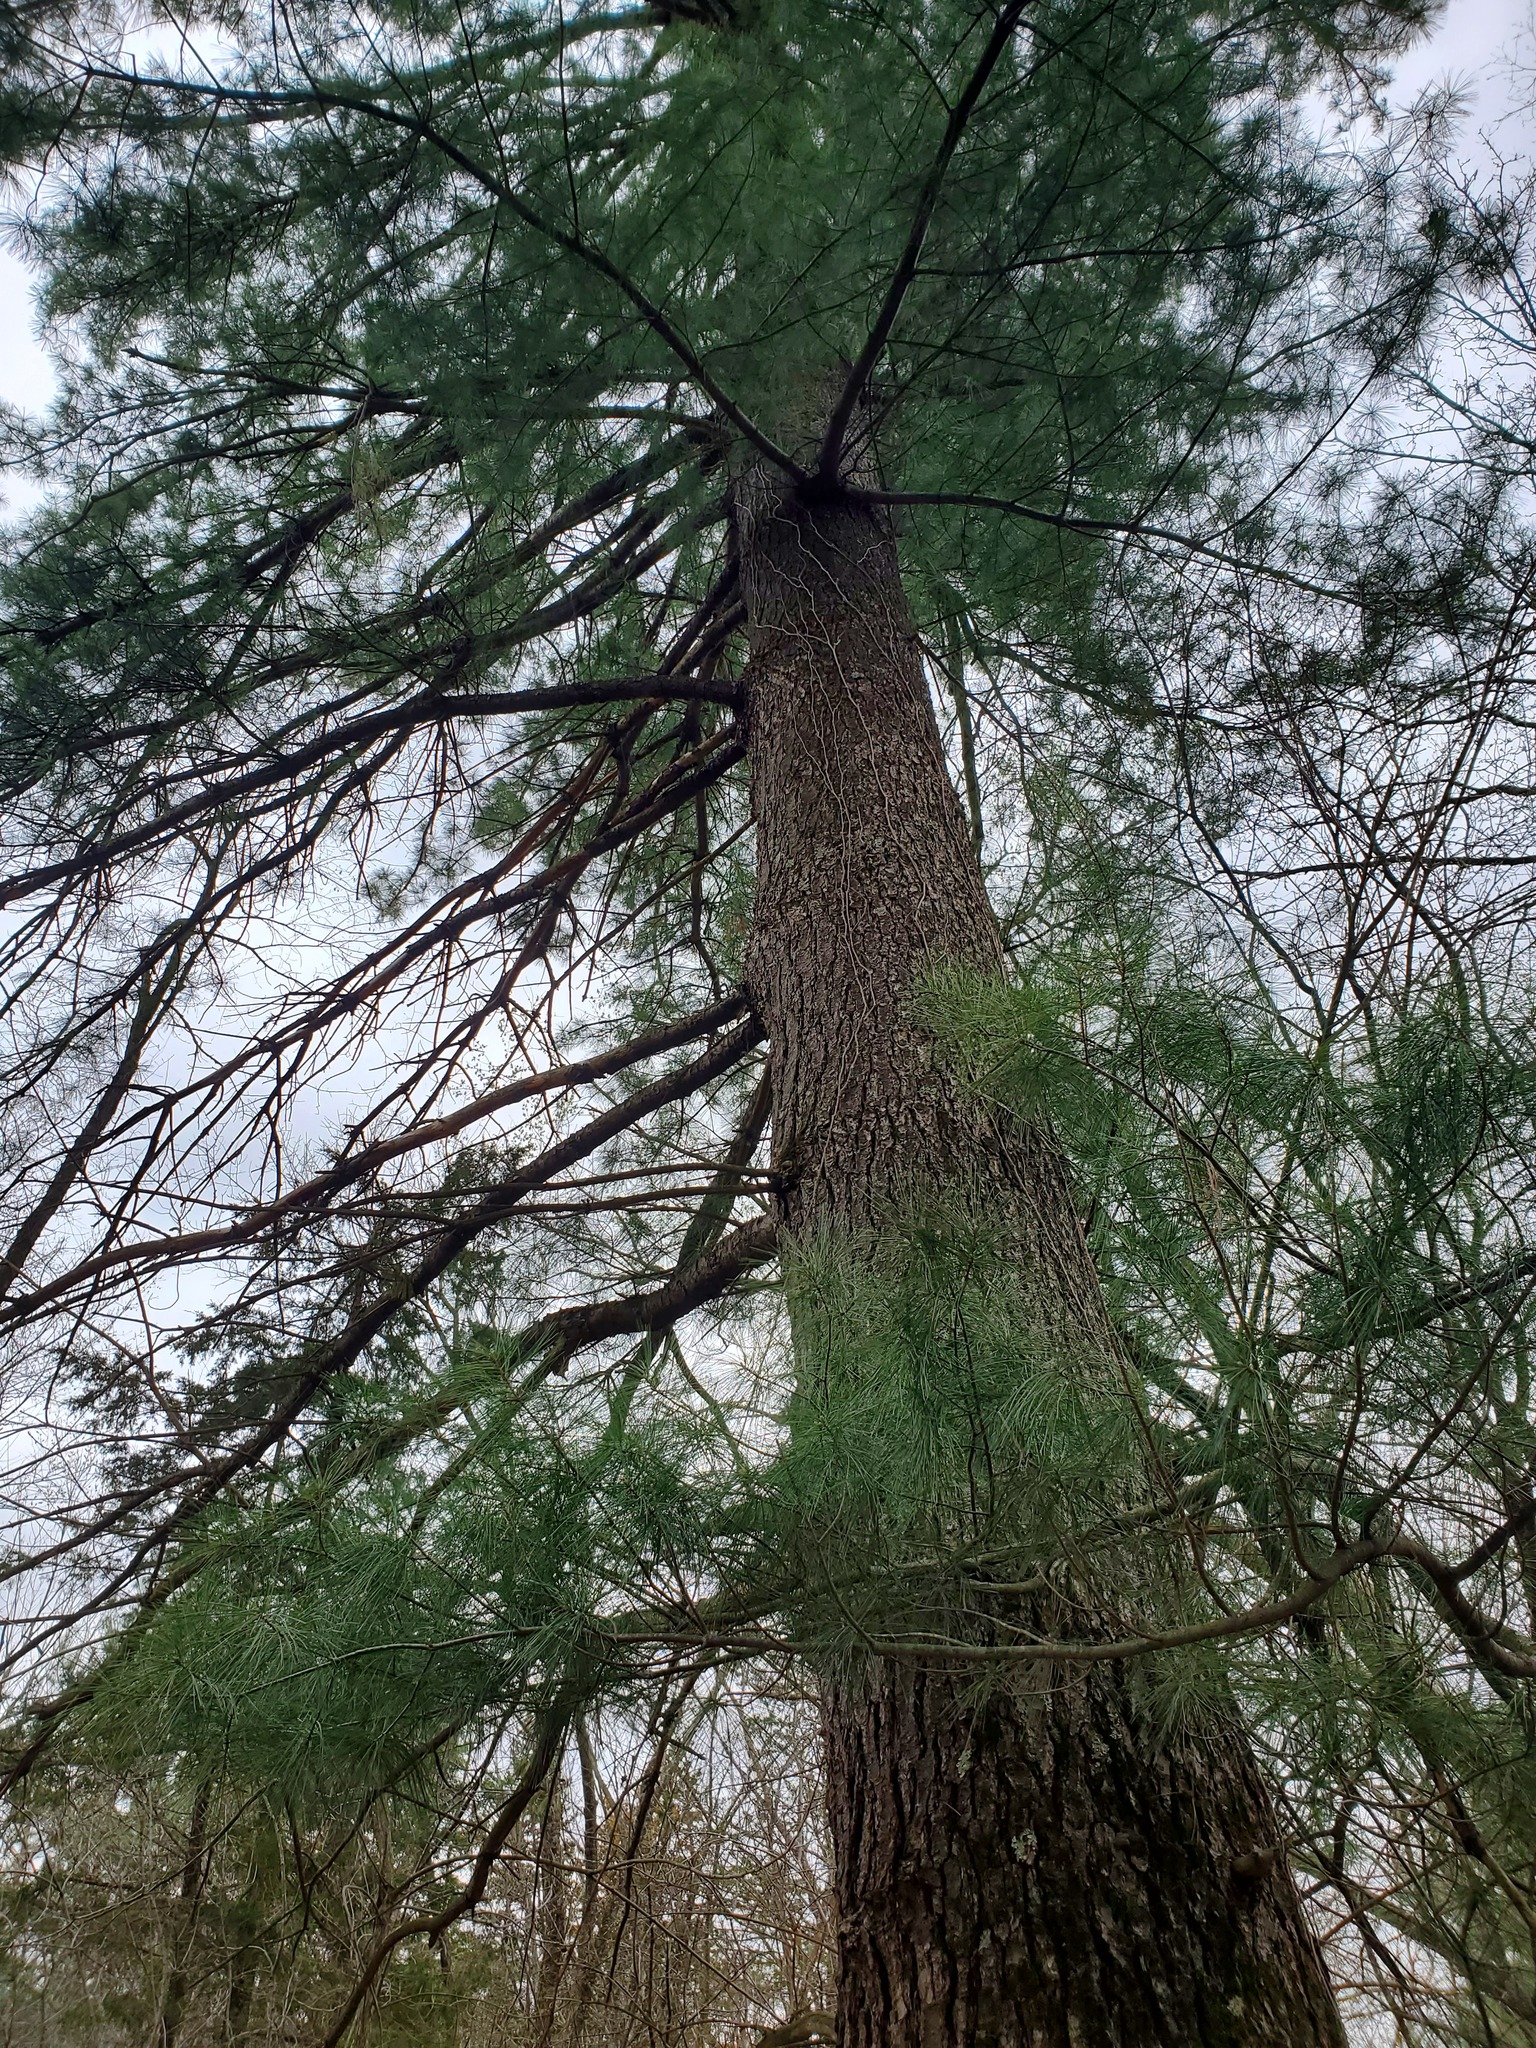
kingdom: Plantae
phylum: Tracheophyta
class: Pinopsida
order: Pinales
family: Pinaceae
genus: Pinus
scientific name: Pinus strobus
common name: Weymouth pine
